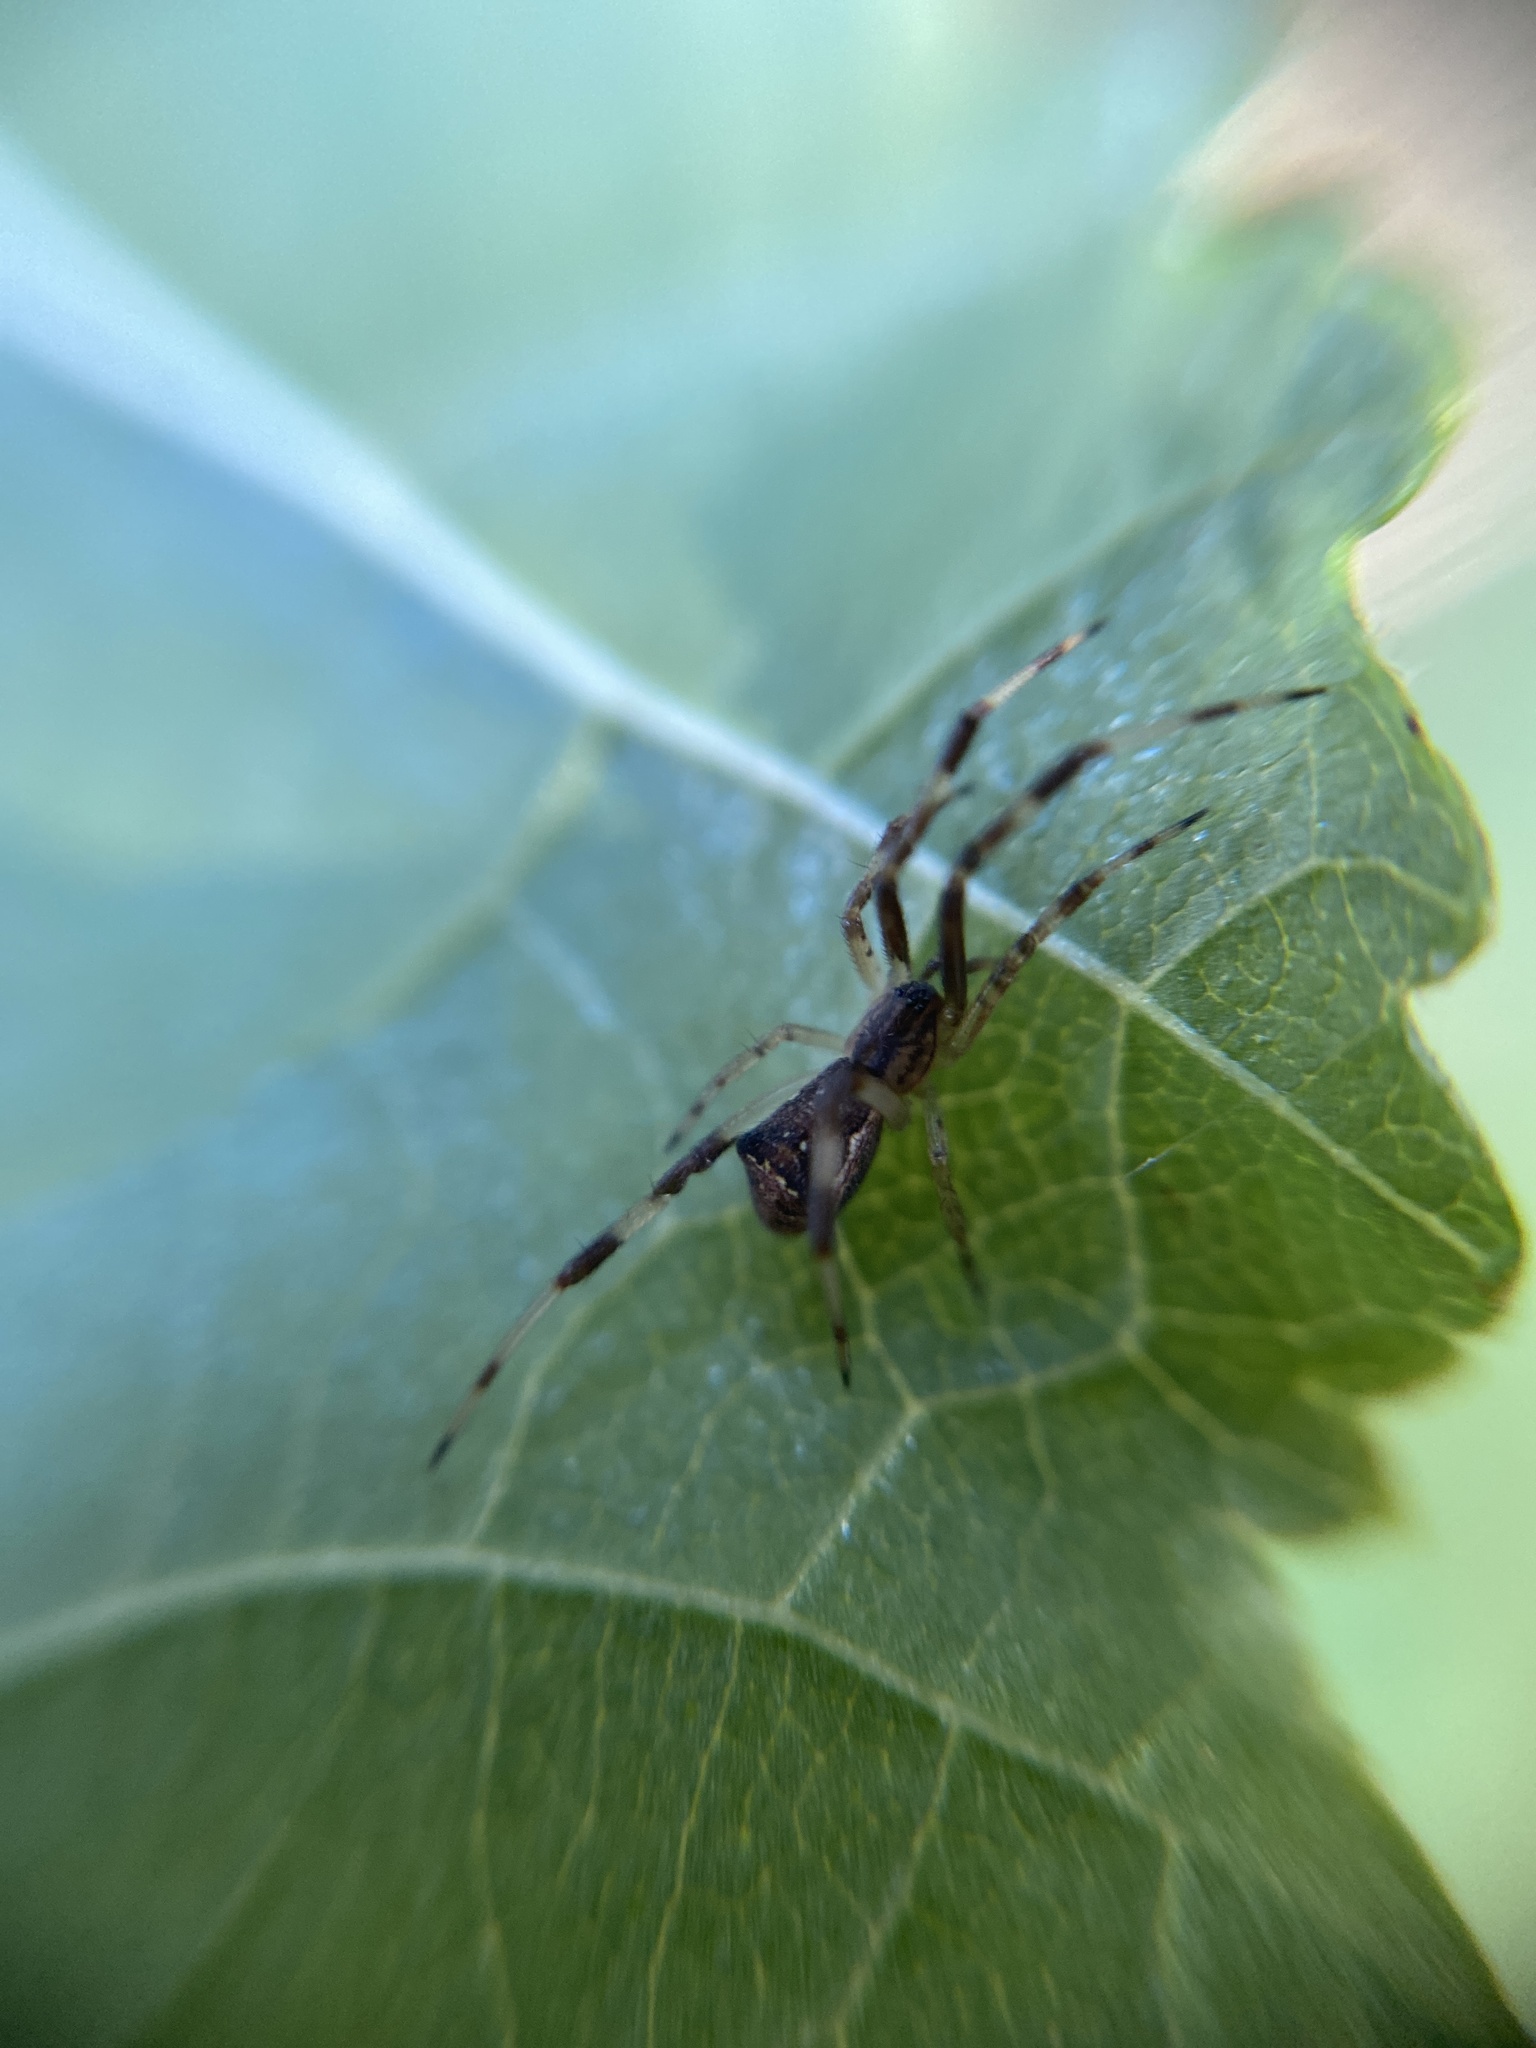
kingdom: Animalia
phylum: Arthropoda
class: Arachnida
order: Araneae
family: Theridiidae
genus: Episinus
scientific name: Episinus angulatus
